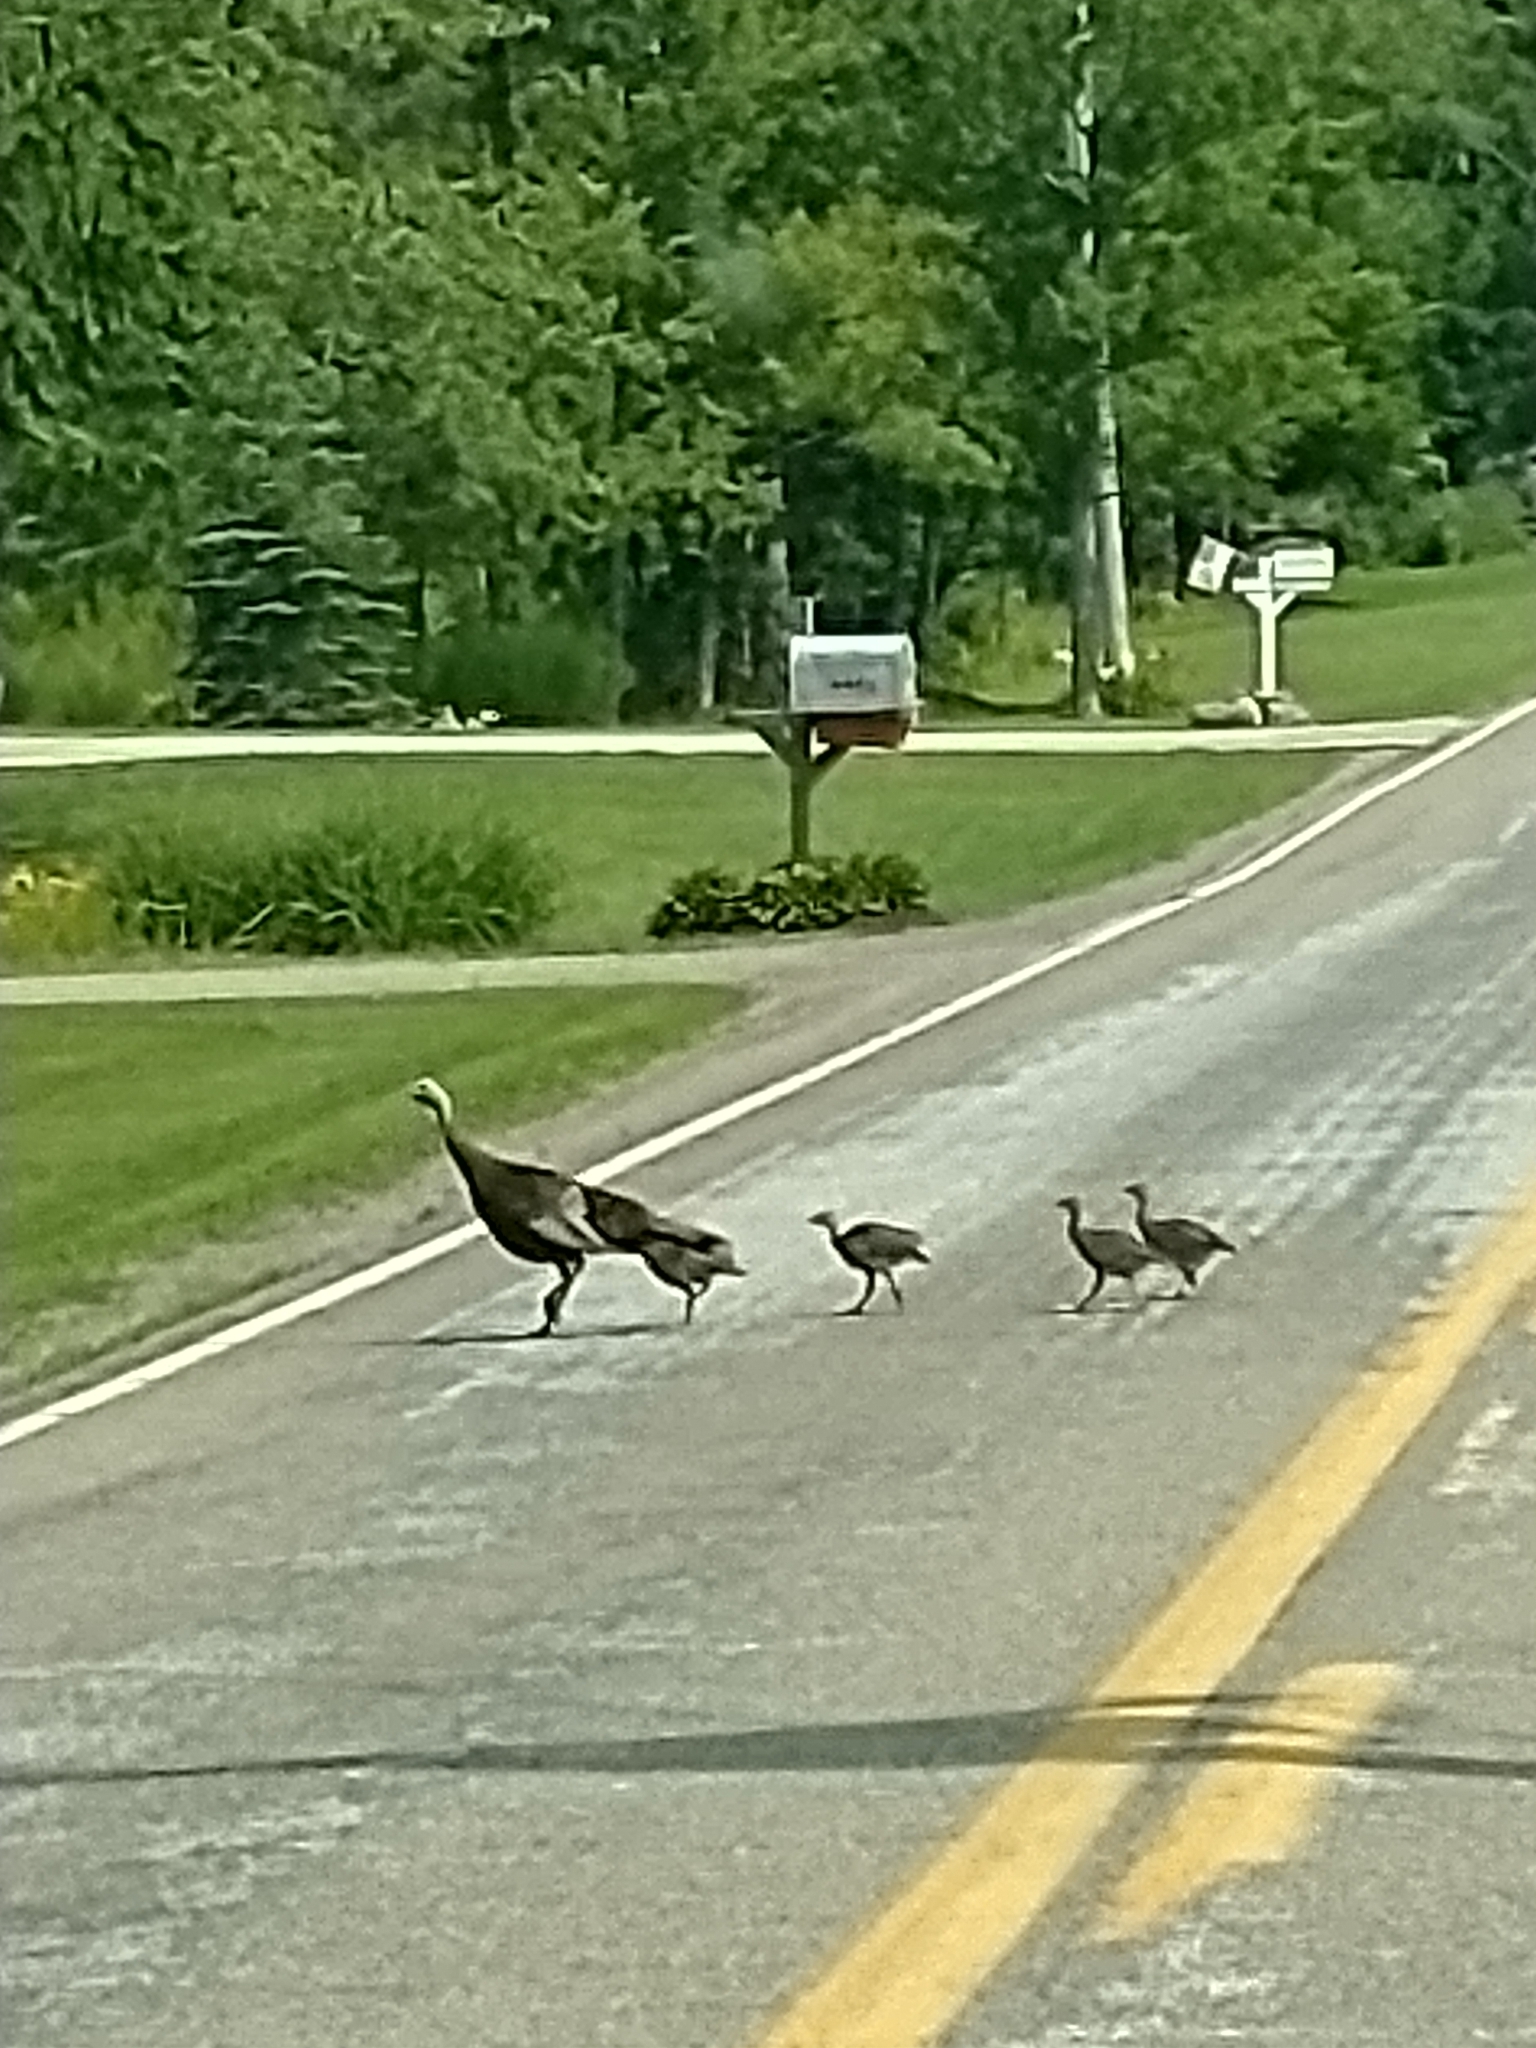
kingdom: Animalia
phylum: Chordata
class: Aves
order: Galliformes
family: Phasianidae
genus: Meleagris
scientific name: Meleagris gallopavo
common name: Wild turkey
